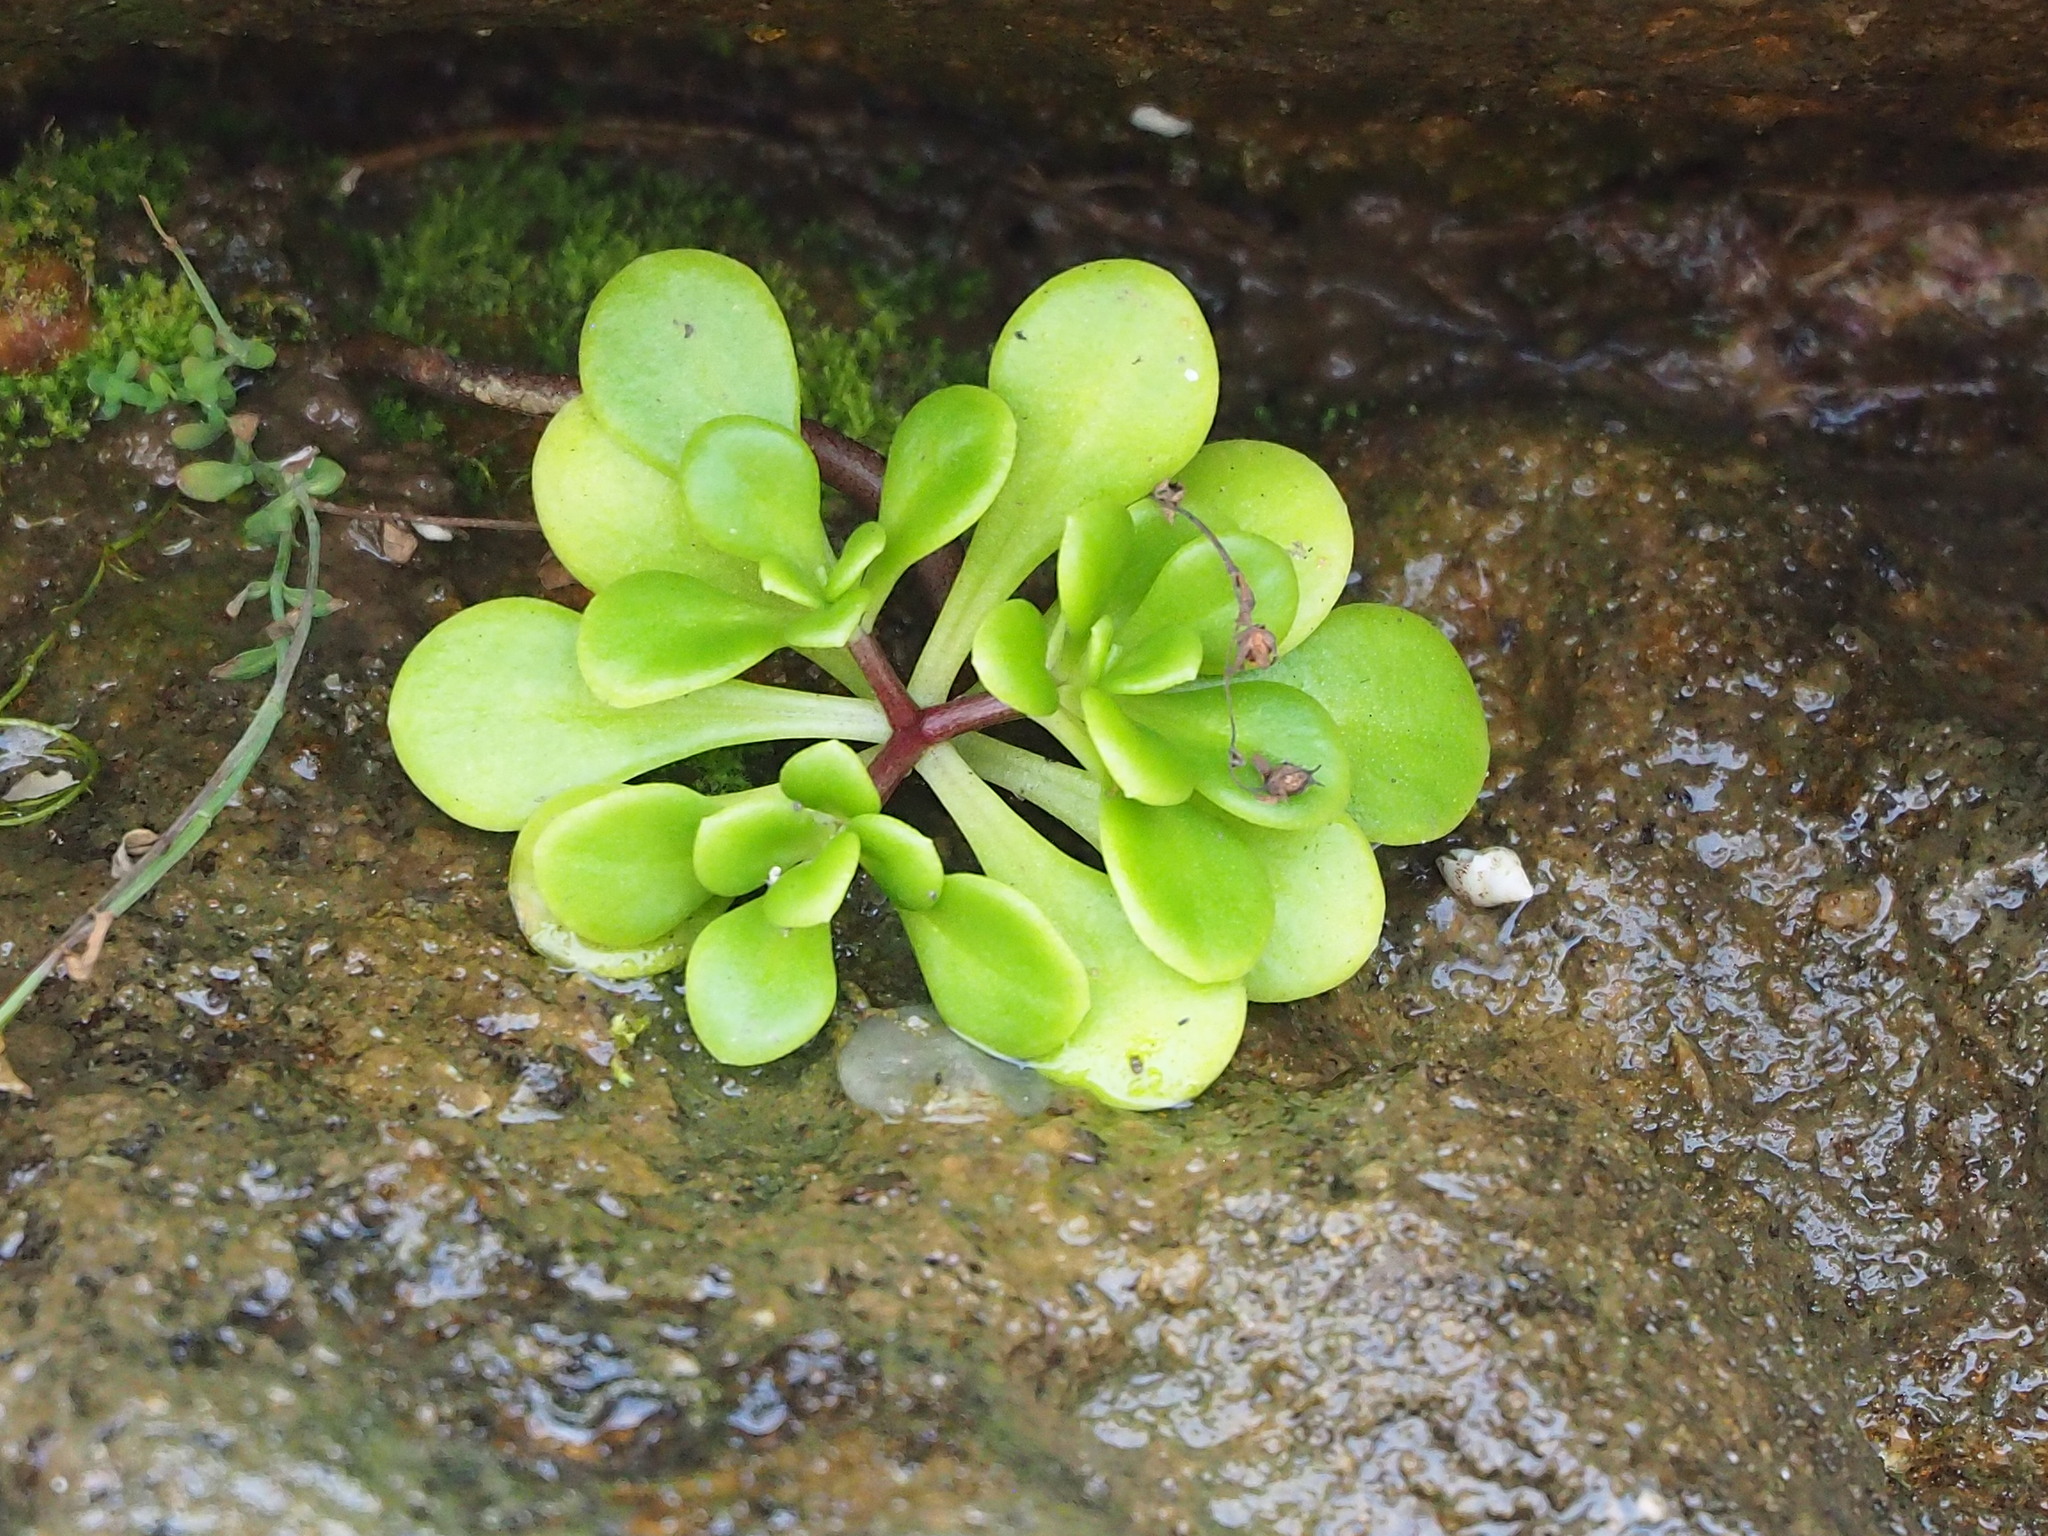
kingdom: Plantae
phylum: Tracheophyta
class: Magnoliopsida
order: Saxifragales
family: Crassulaceae
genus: Sedum
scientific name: Sedum formosanum
